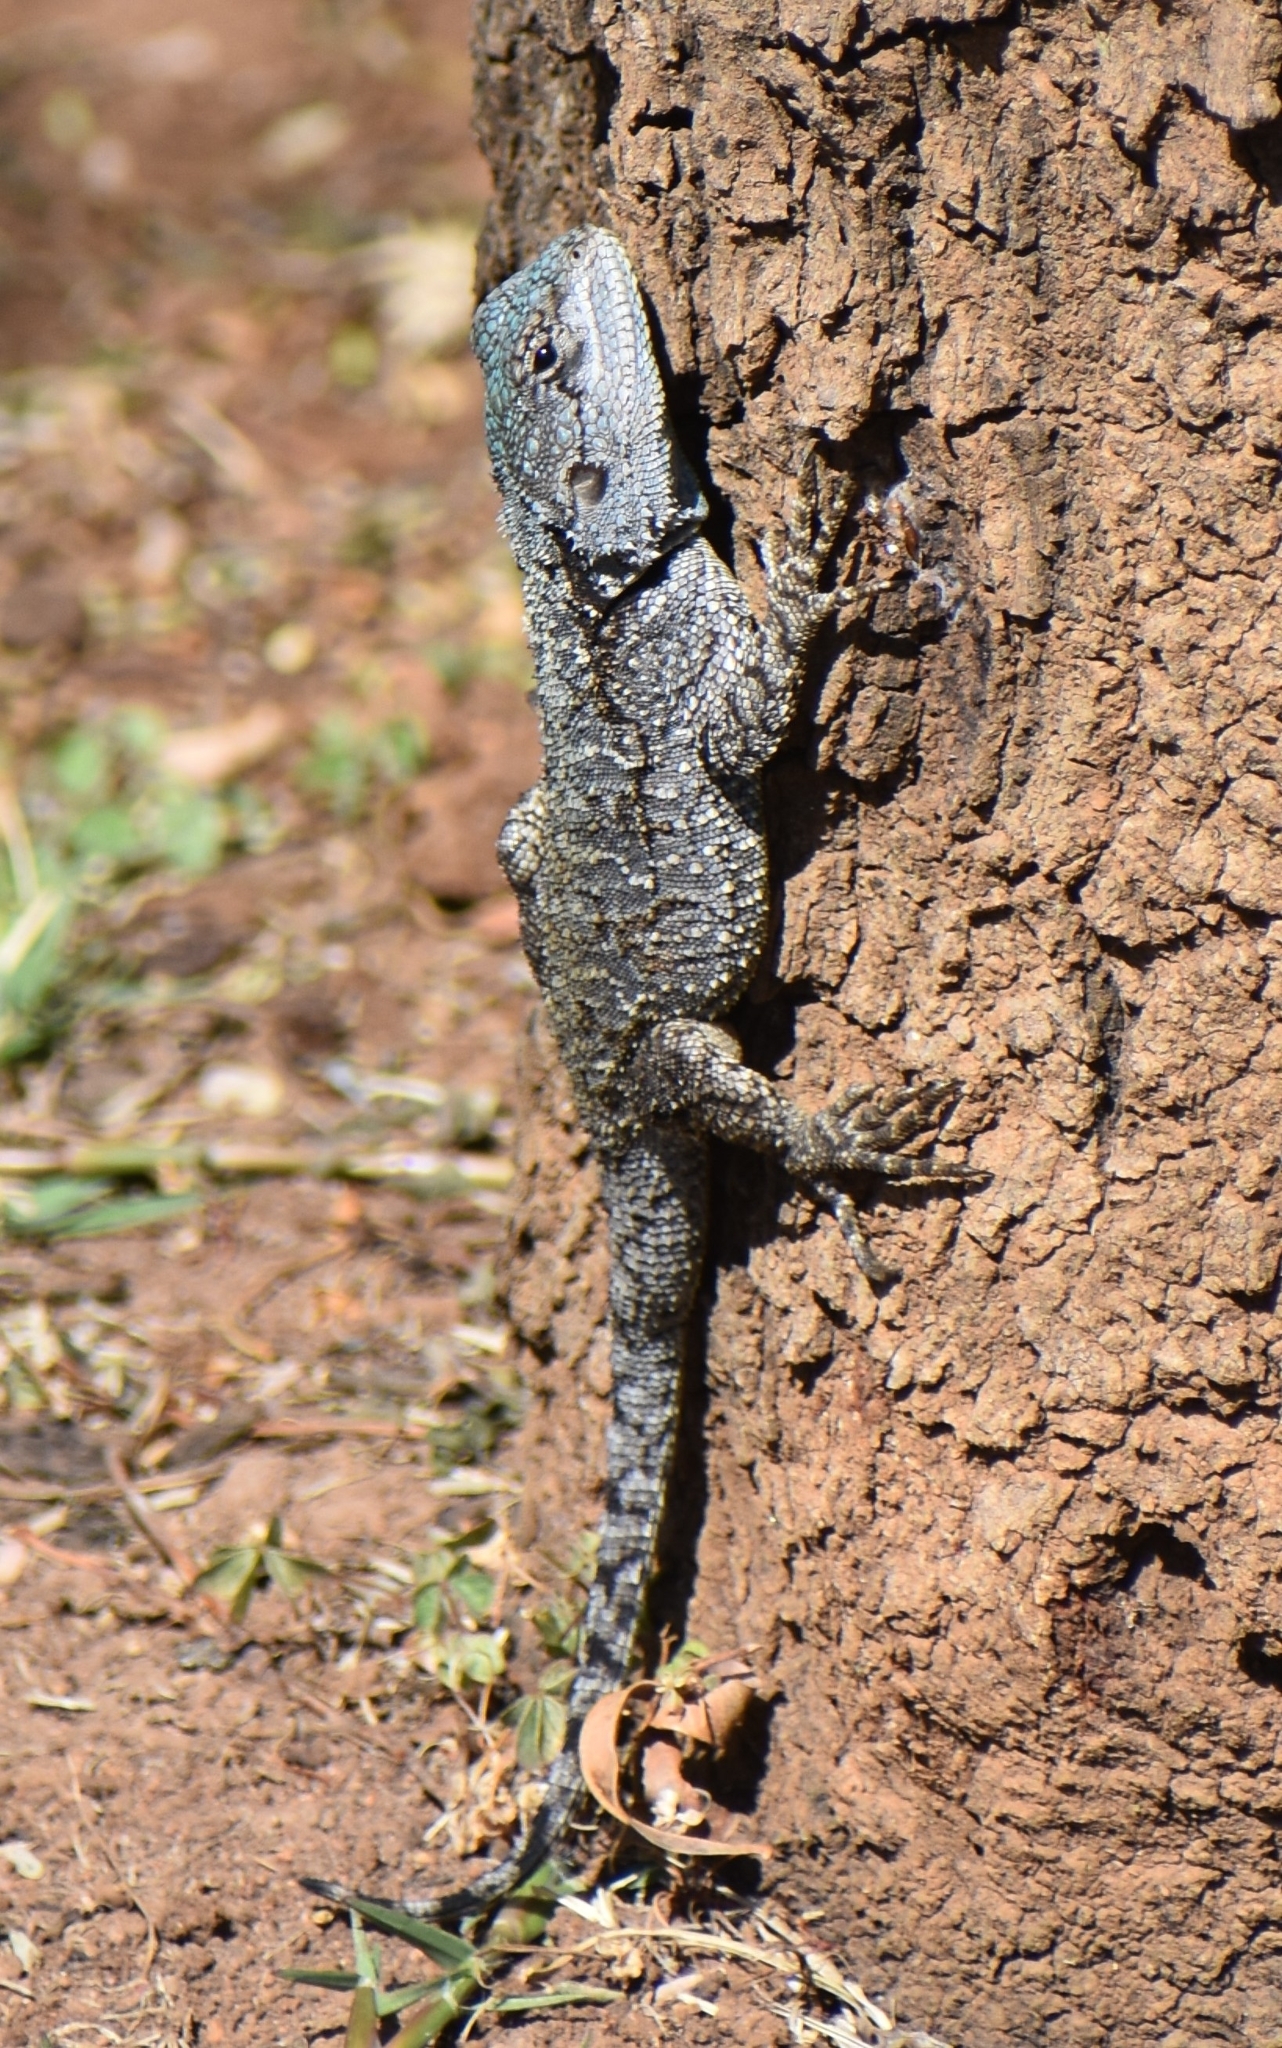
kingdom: Animalia
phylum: Chordata
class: Squamata
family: Agamidae
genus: Acanthocercus
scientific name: Acanthocercus atricollis
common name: Southern tree agama
